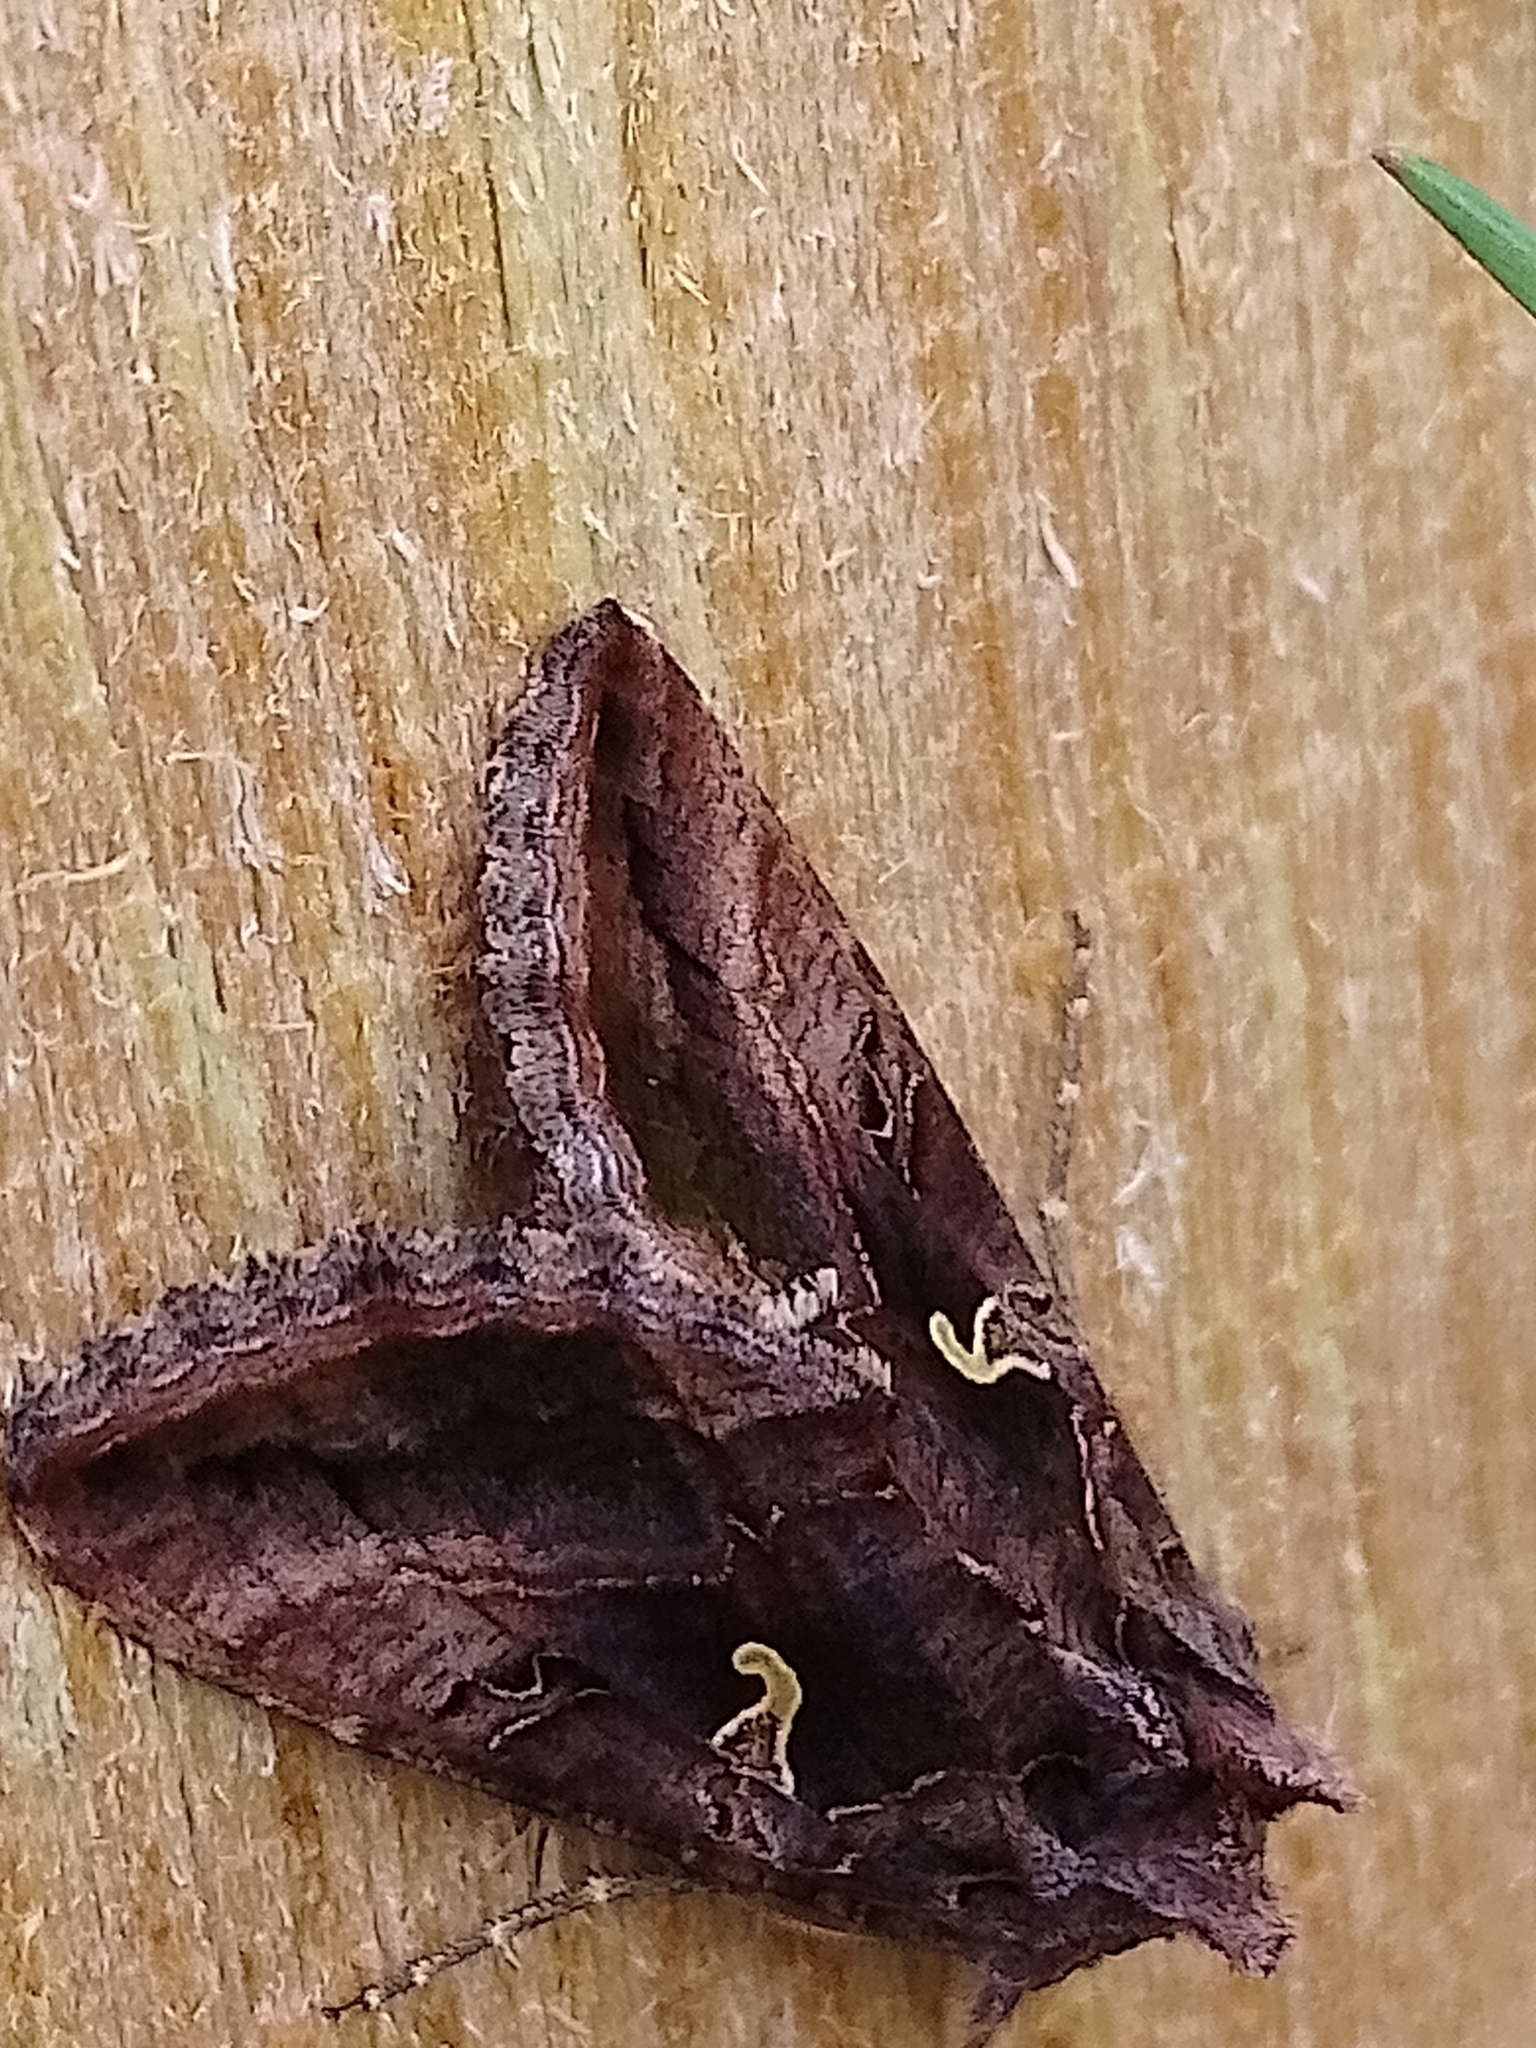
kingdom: Animalia
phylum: Arthropoda
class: Insecta
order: Lepidoptera
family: Noctuidae
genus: Autographa
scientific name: Autographa gamma
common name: Silver y
